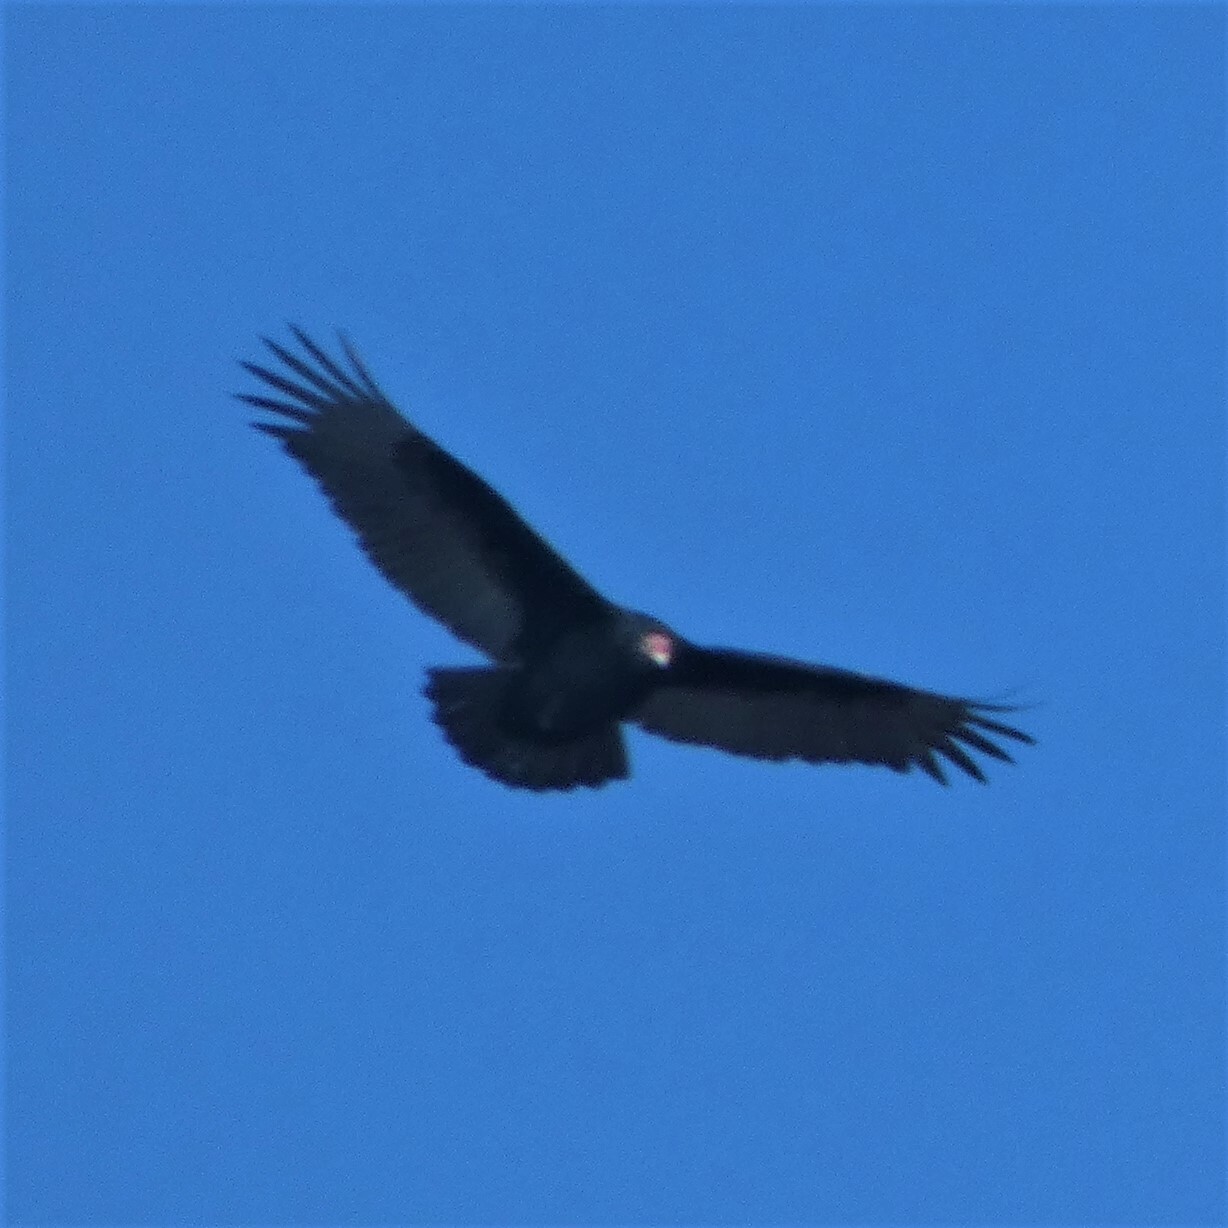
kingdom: Animalia
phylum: Chordata
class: Aves
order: Accipitriformes
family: Cathartidae
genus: Cathartes
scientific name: Cathartes aura
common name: Turkey vulture
